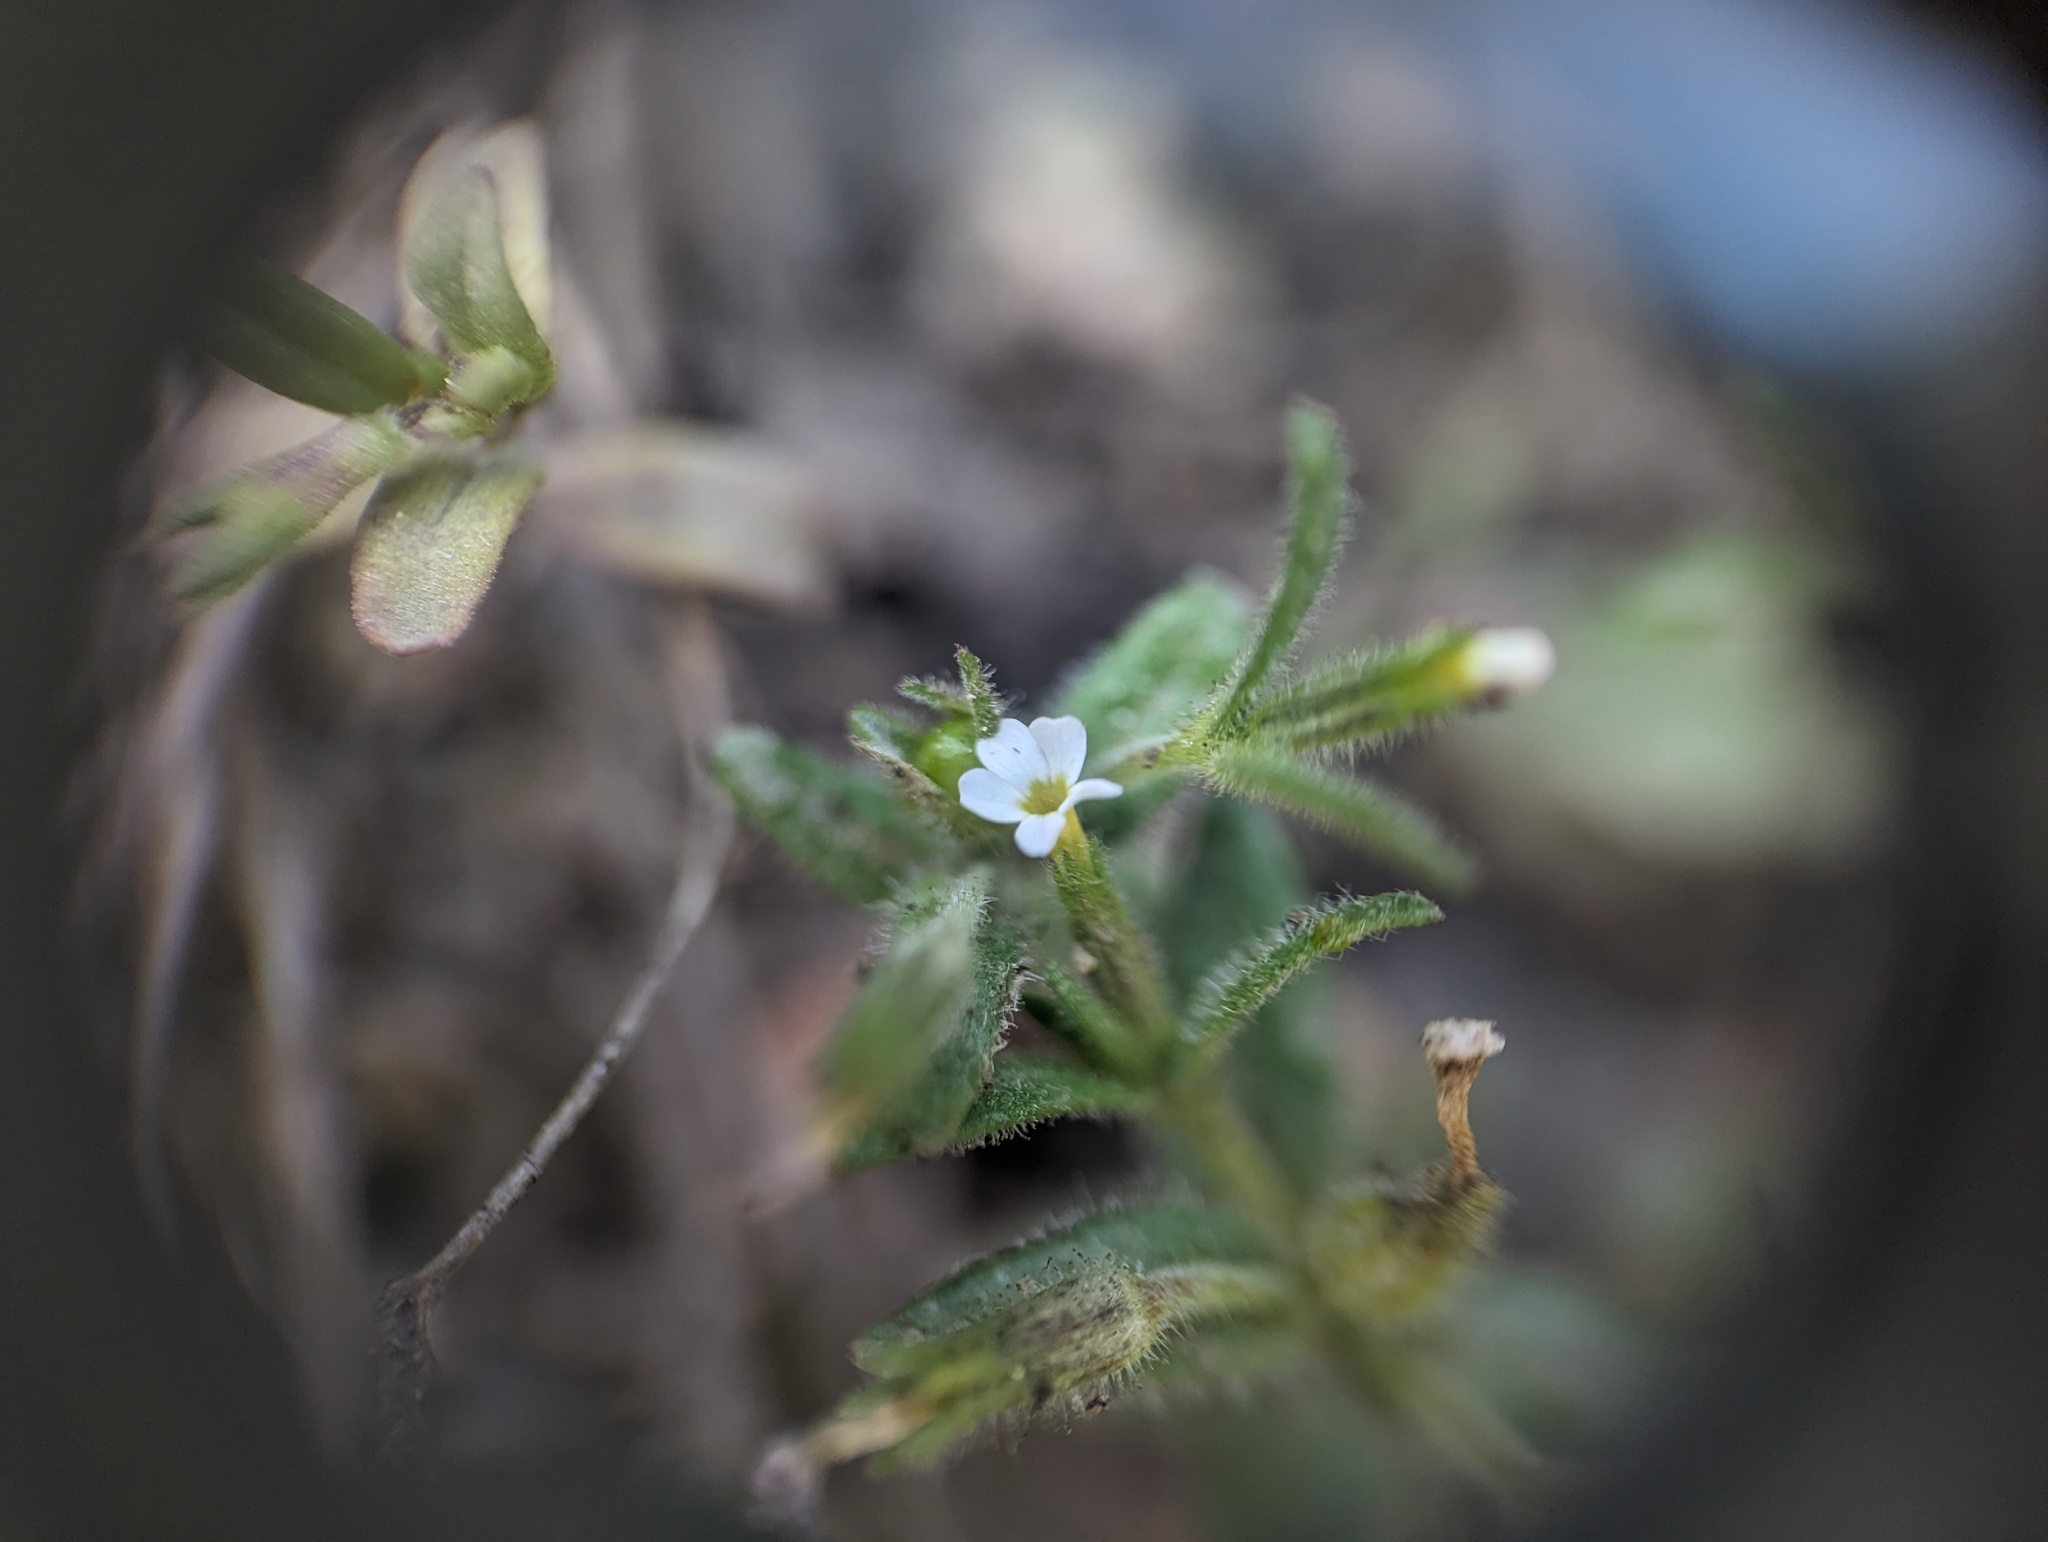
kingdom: Plantae
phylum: Tracheophyta
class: Magnoliopsida
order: Ericales
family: Polemoniaceae
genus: Phlox
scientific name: Phlox gracilis
